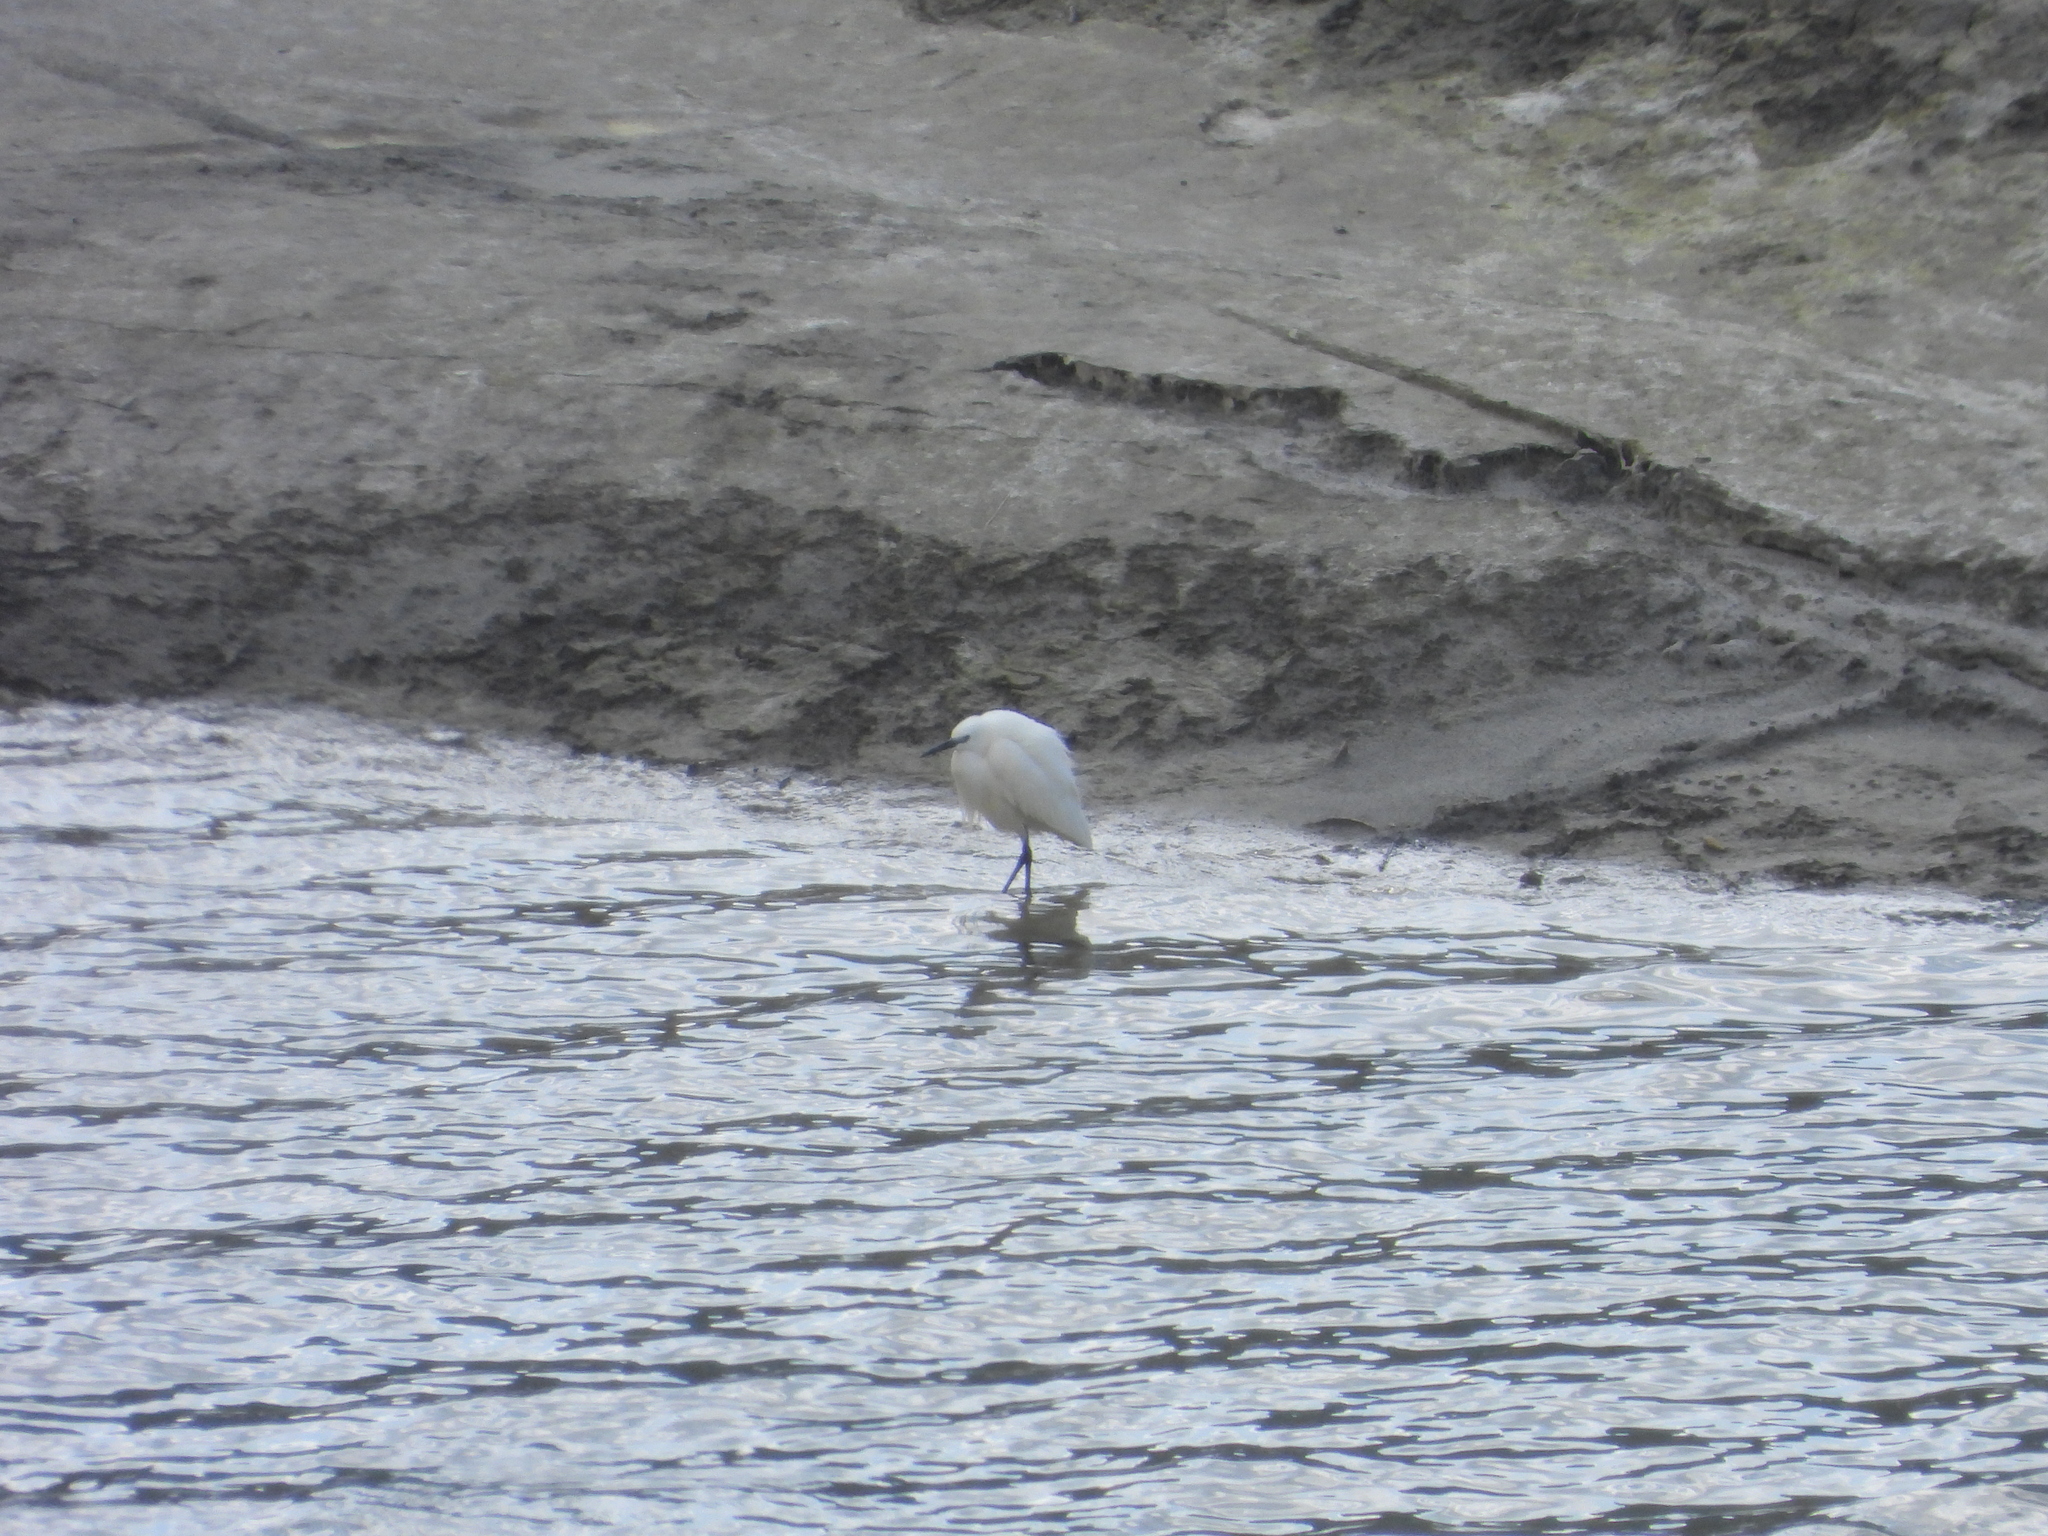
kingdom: Animalia
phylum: Chordata
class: Aves
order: Pelecaniformes
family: Ardeidae
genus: Egretta
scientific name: Egretta garzetta
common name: Little egret
